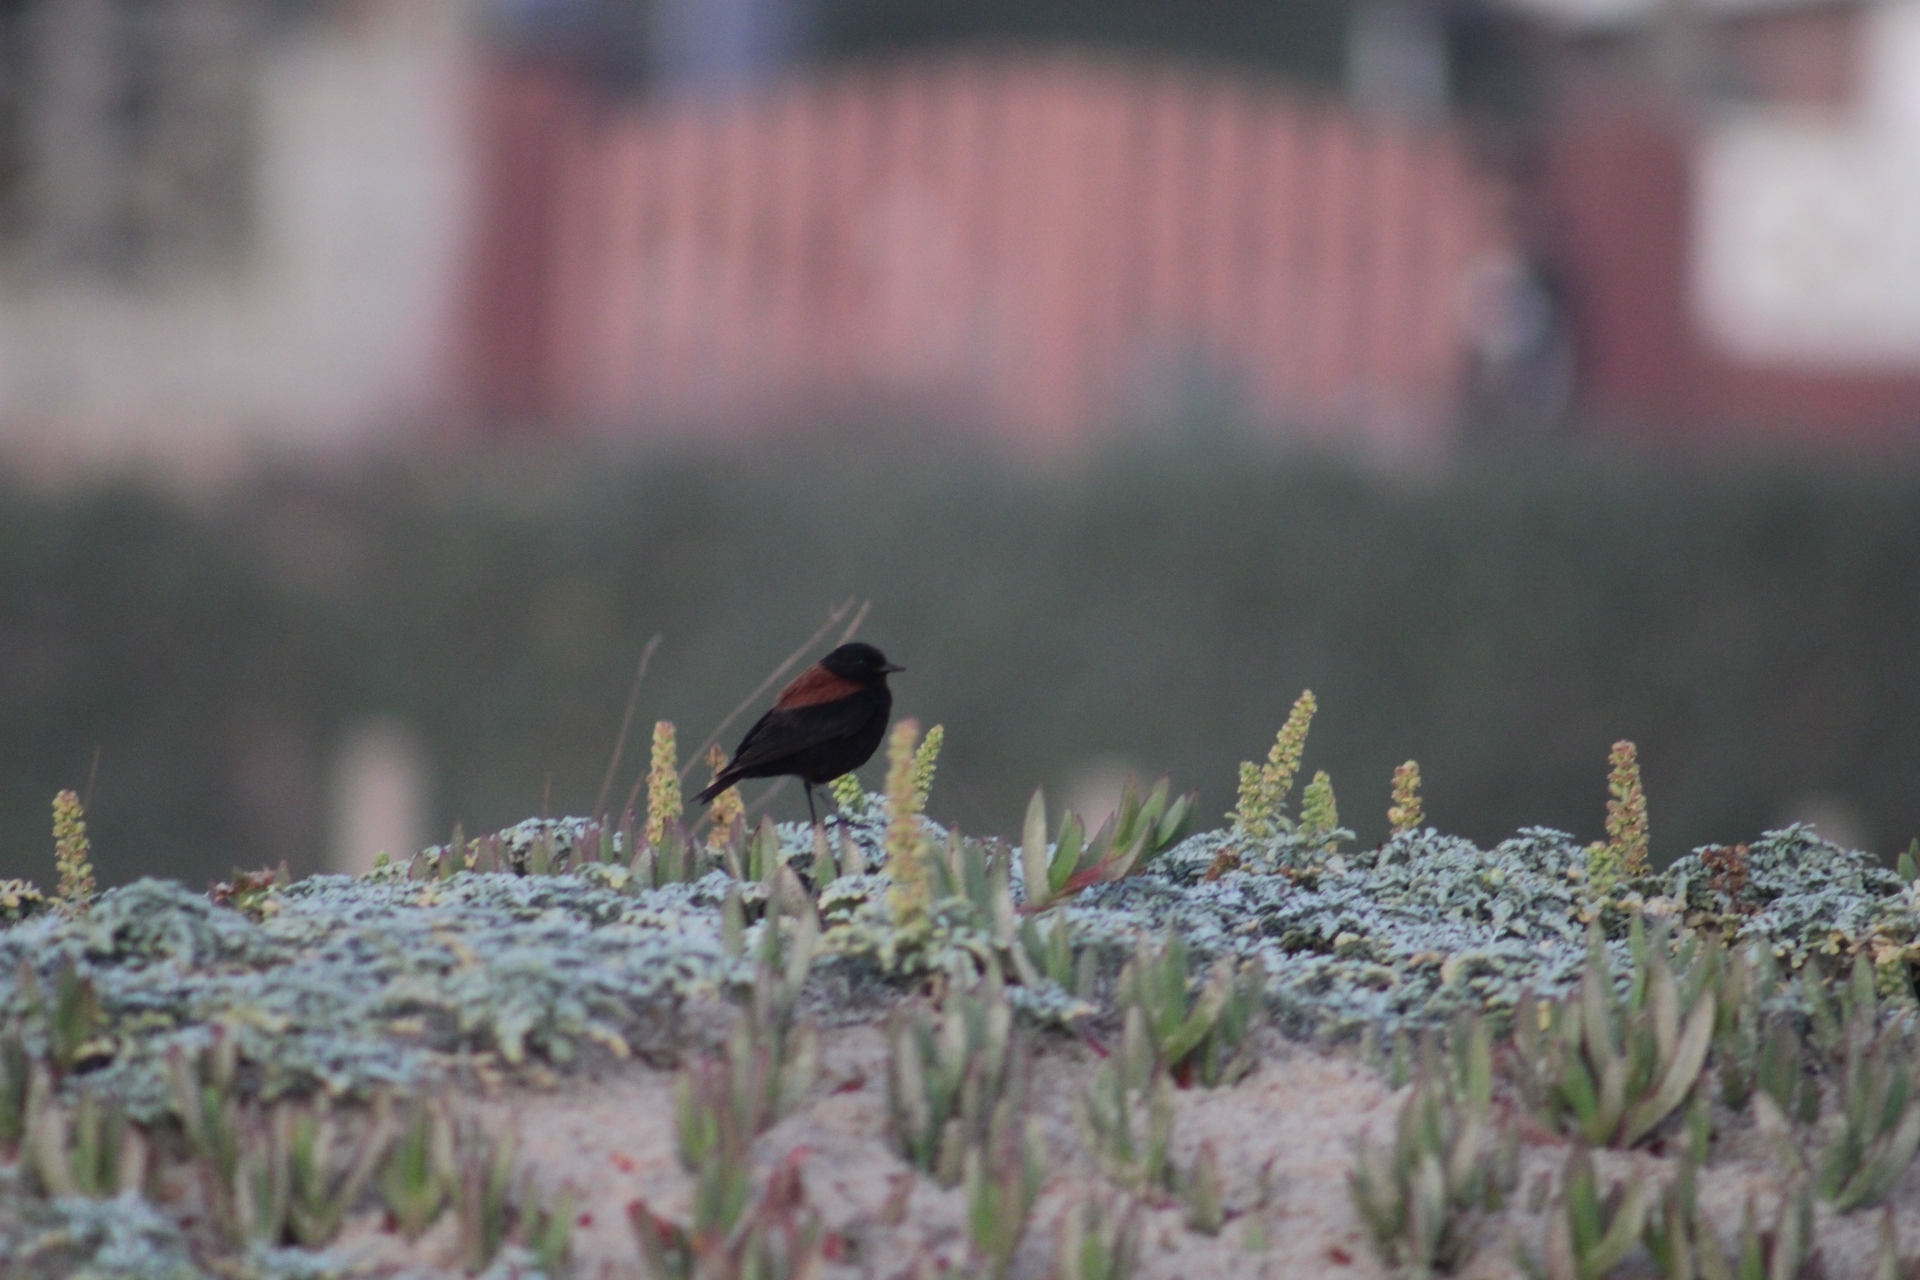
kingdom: Animalia
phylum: Chordata
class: Aves
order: Passeriformes
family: Tyrannidae
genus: Lessonia
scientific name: Lessonia rufa
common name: Austral negrito
